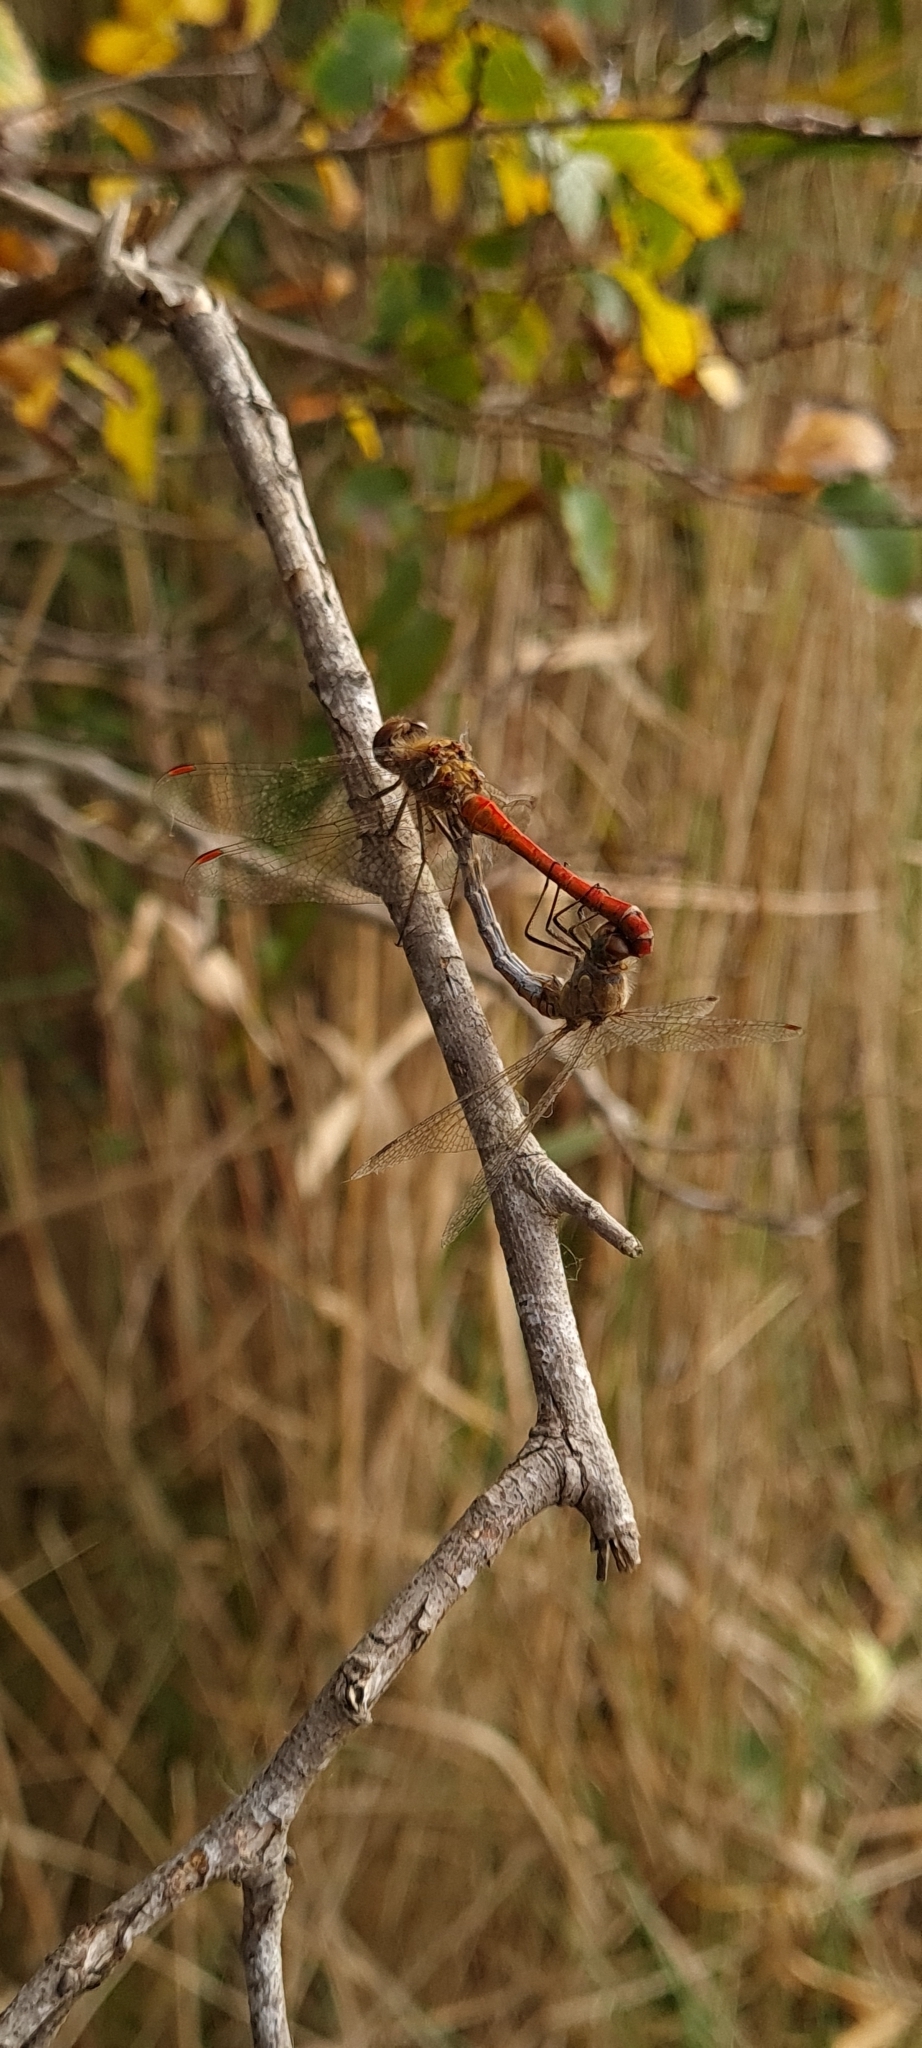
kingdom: Animalia
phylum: Arthropoda
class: Insecta
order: Odonata
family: Libellulidae
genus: Sympetrum
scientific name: Sympetrum striolatum
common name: Common darter
